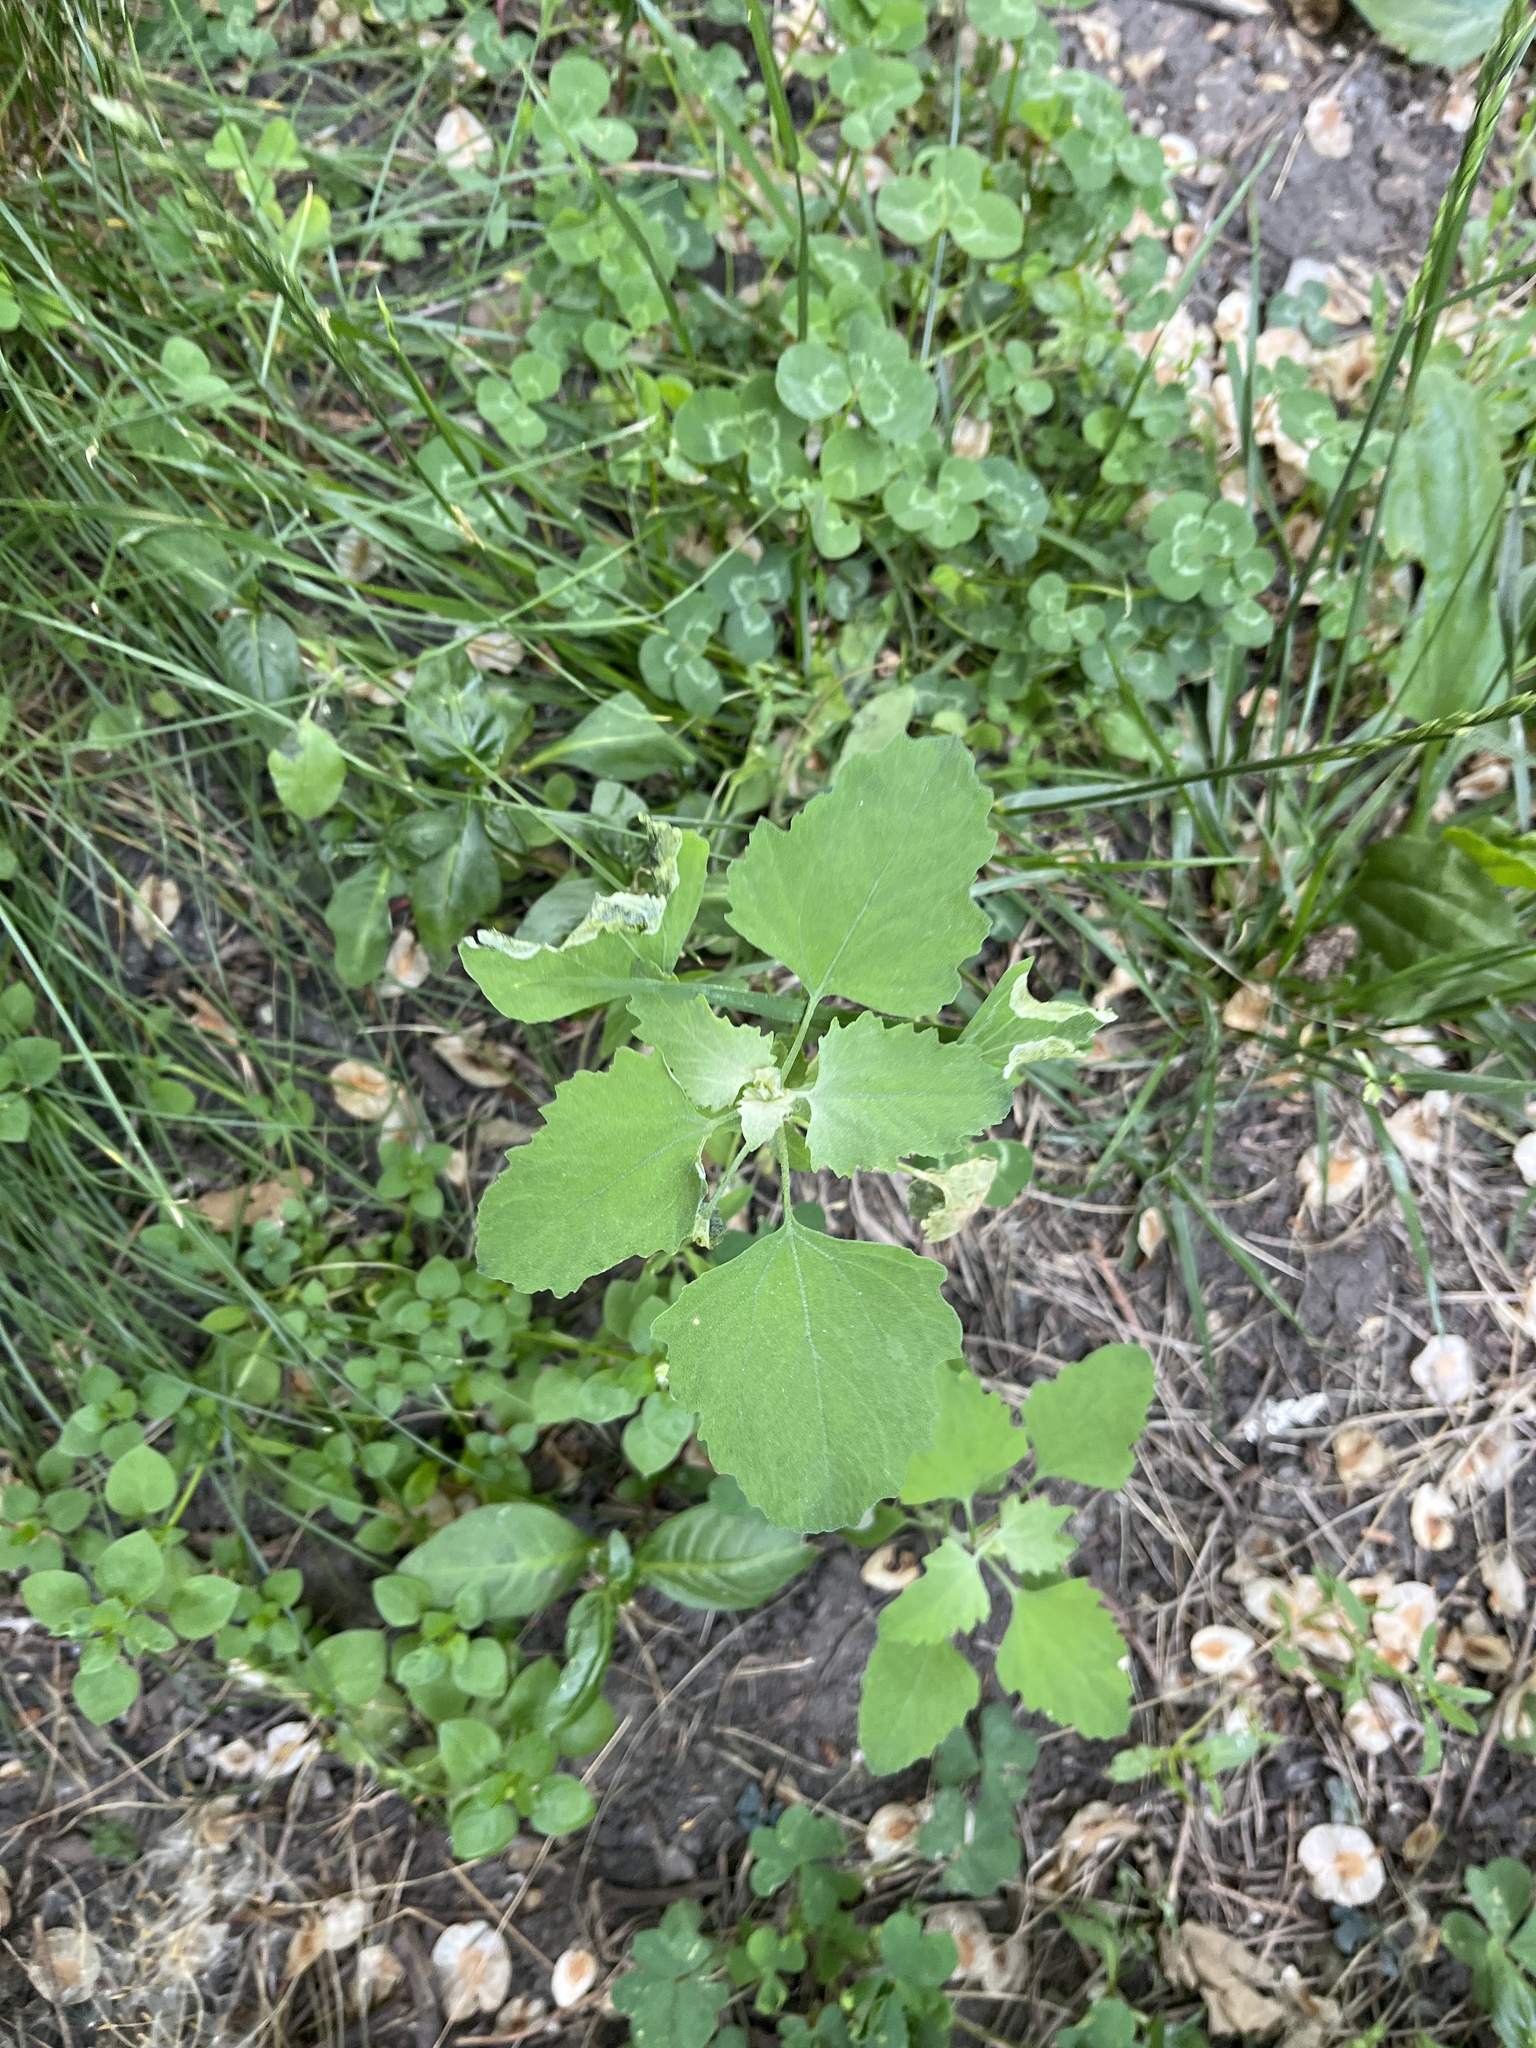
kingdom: Plantae
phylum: Tracheophyta
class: Magnoliopsida
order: Caryophyllales
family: Amaranthaceae
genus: Chenopodium
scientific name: Chenopodium album
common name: Fat-hen
